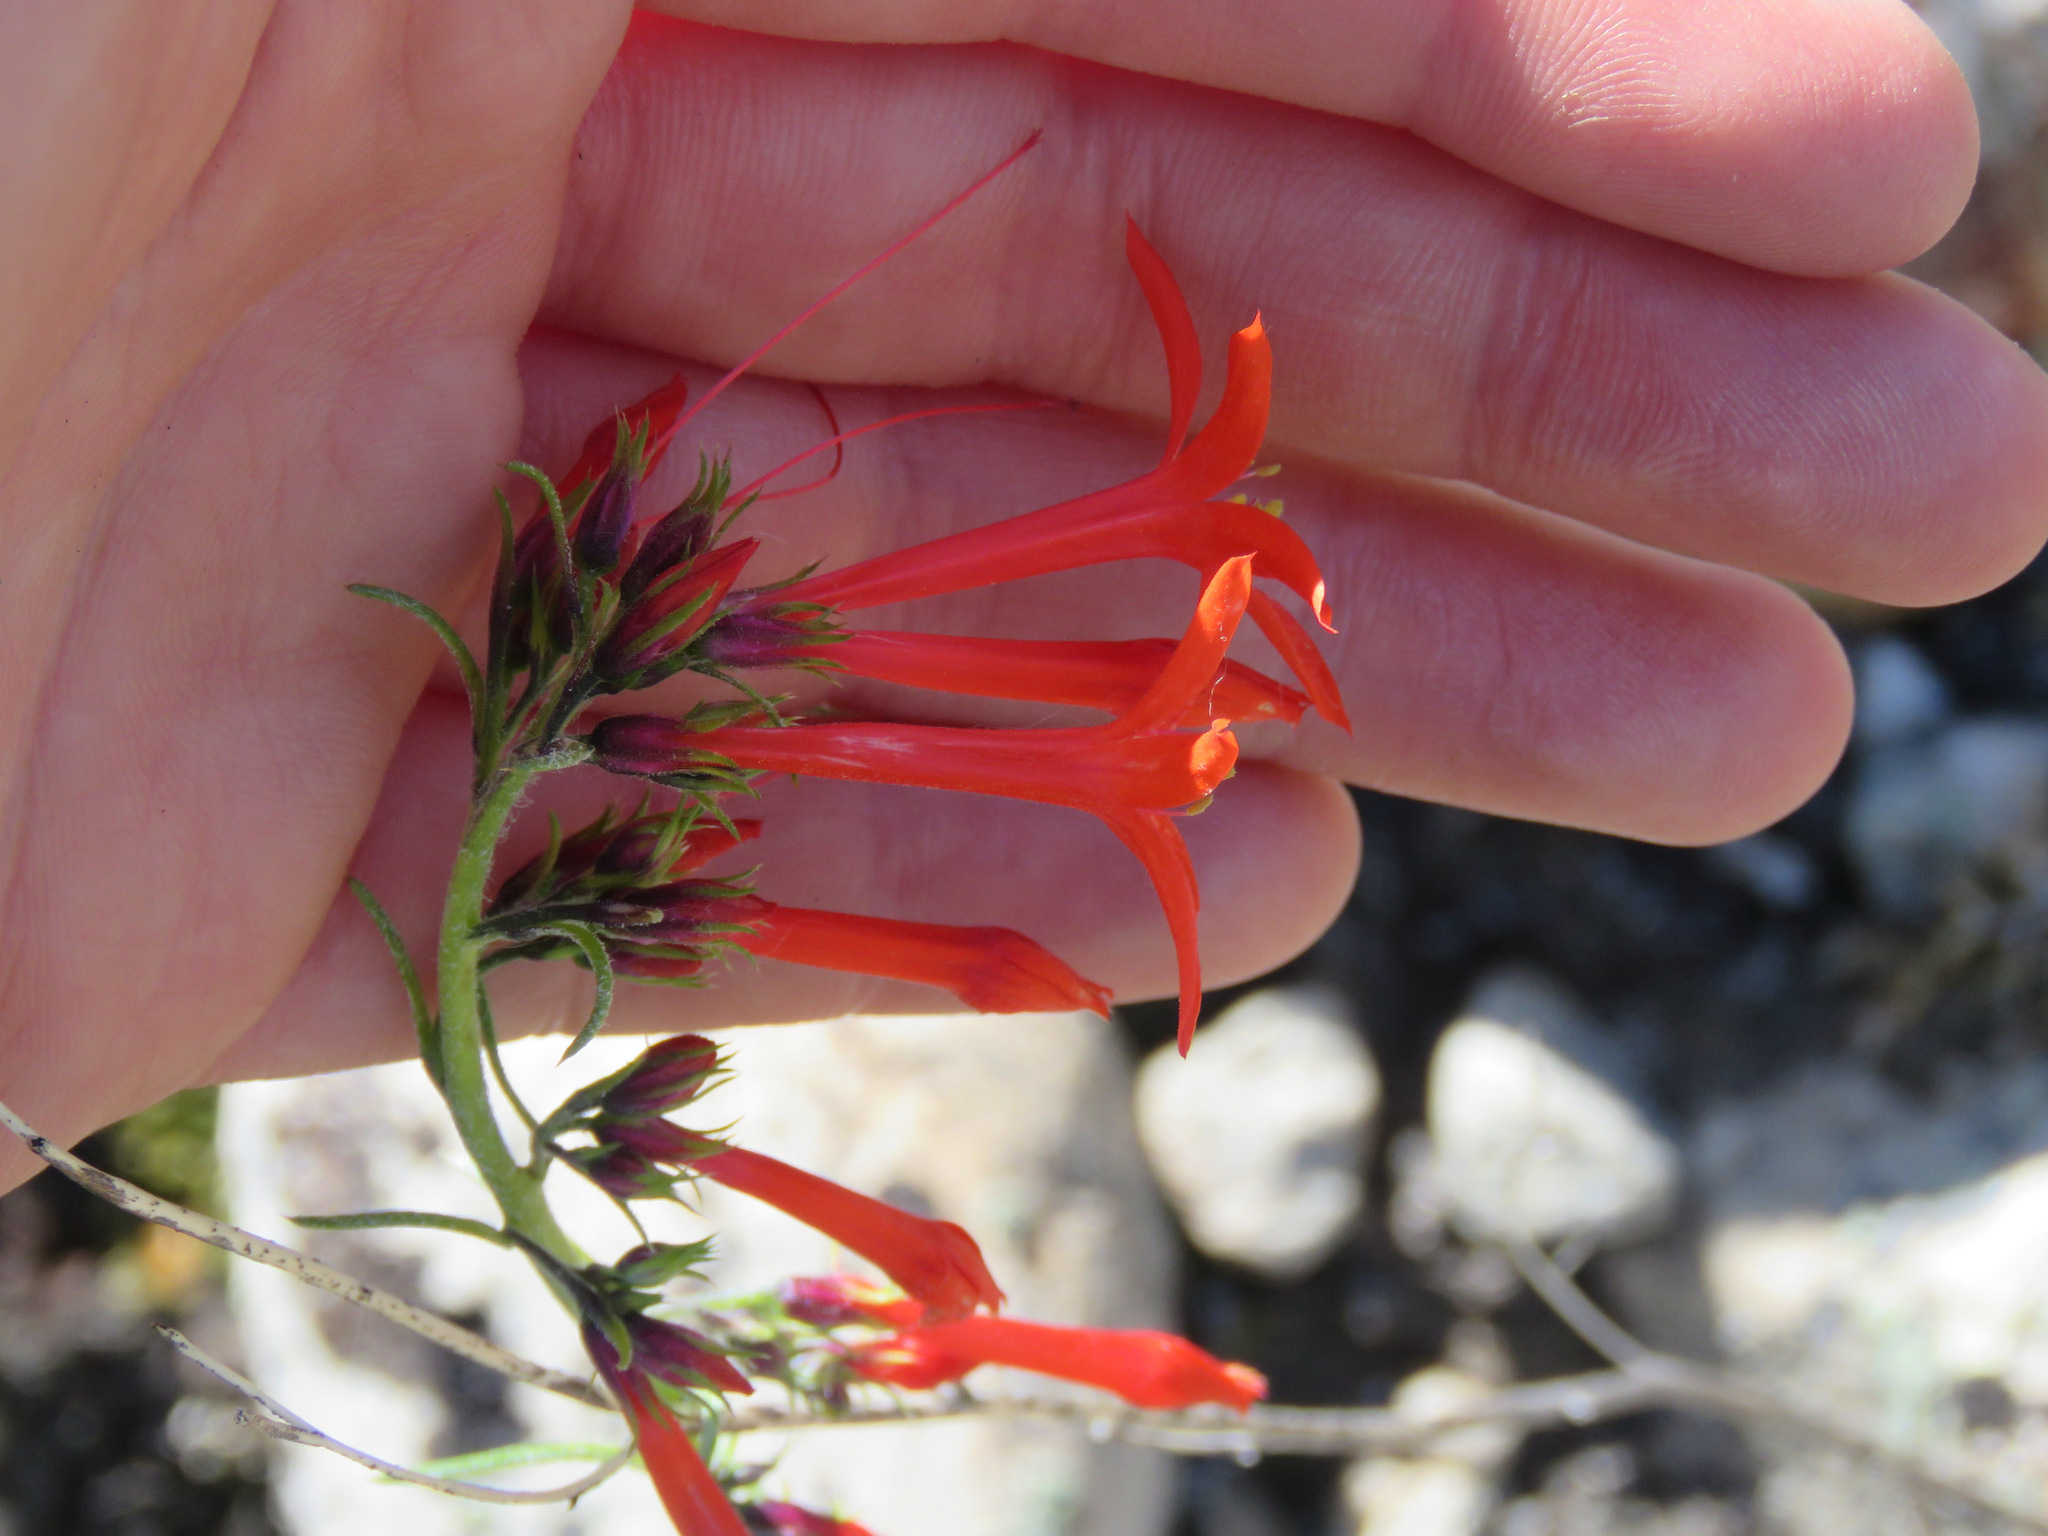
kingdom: Plantae
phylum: Tracheophyta
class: Magnoliopsida
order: Ericales
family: Polemoniaceae
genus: Ipomopsis
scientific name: Ipomopsis aggregata
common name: Scarlet gilia
